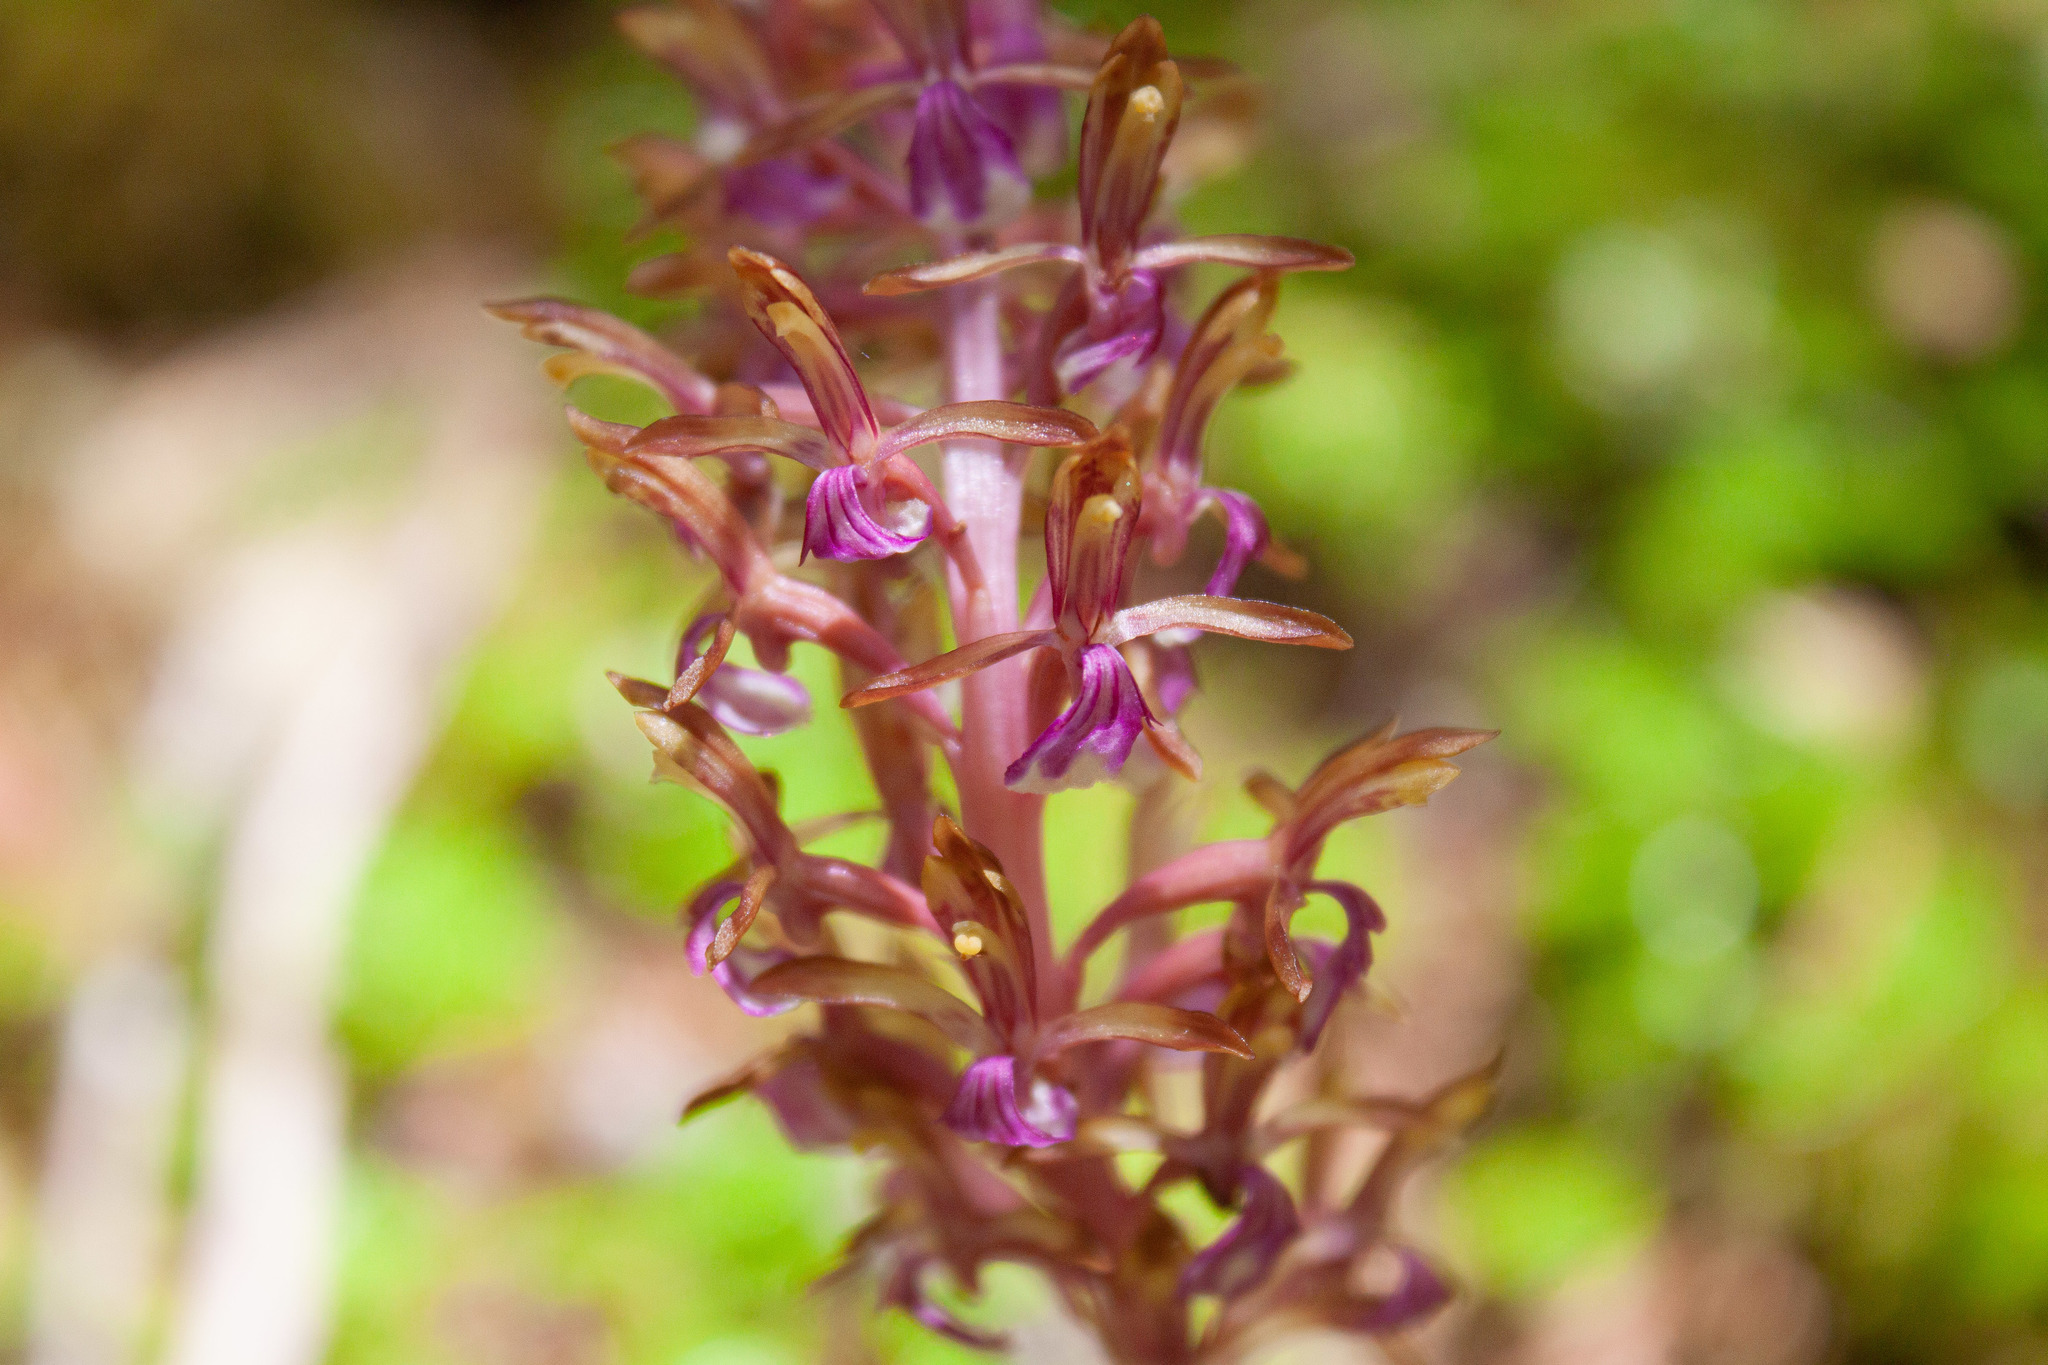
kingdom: Plantae
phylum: Tracheophyta
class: Liliopsida
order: Asparagales
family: Orchidaceae
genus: Corallorhiza
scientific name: Corallorhiza mertensiana
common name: Pacific coralroot
